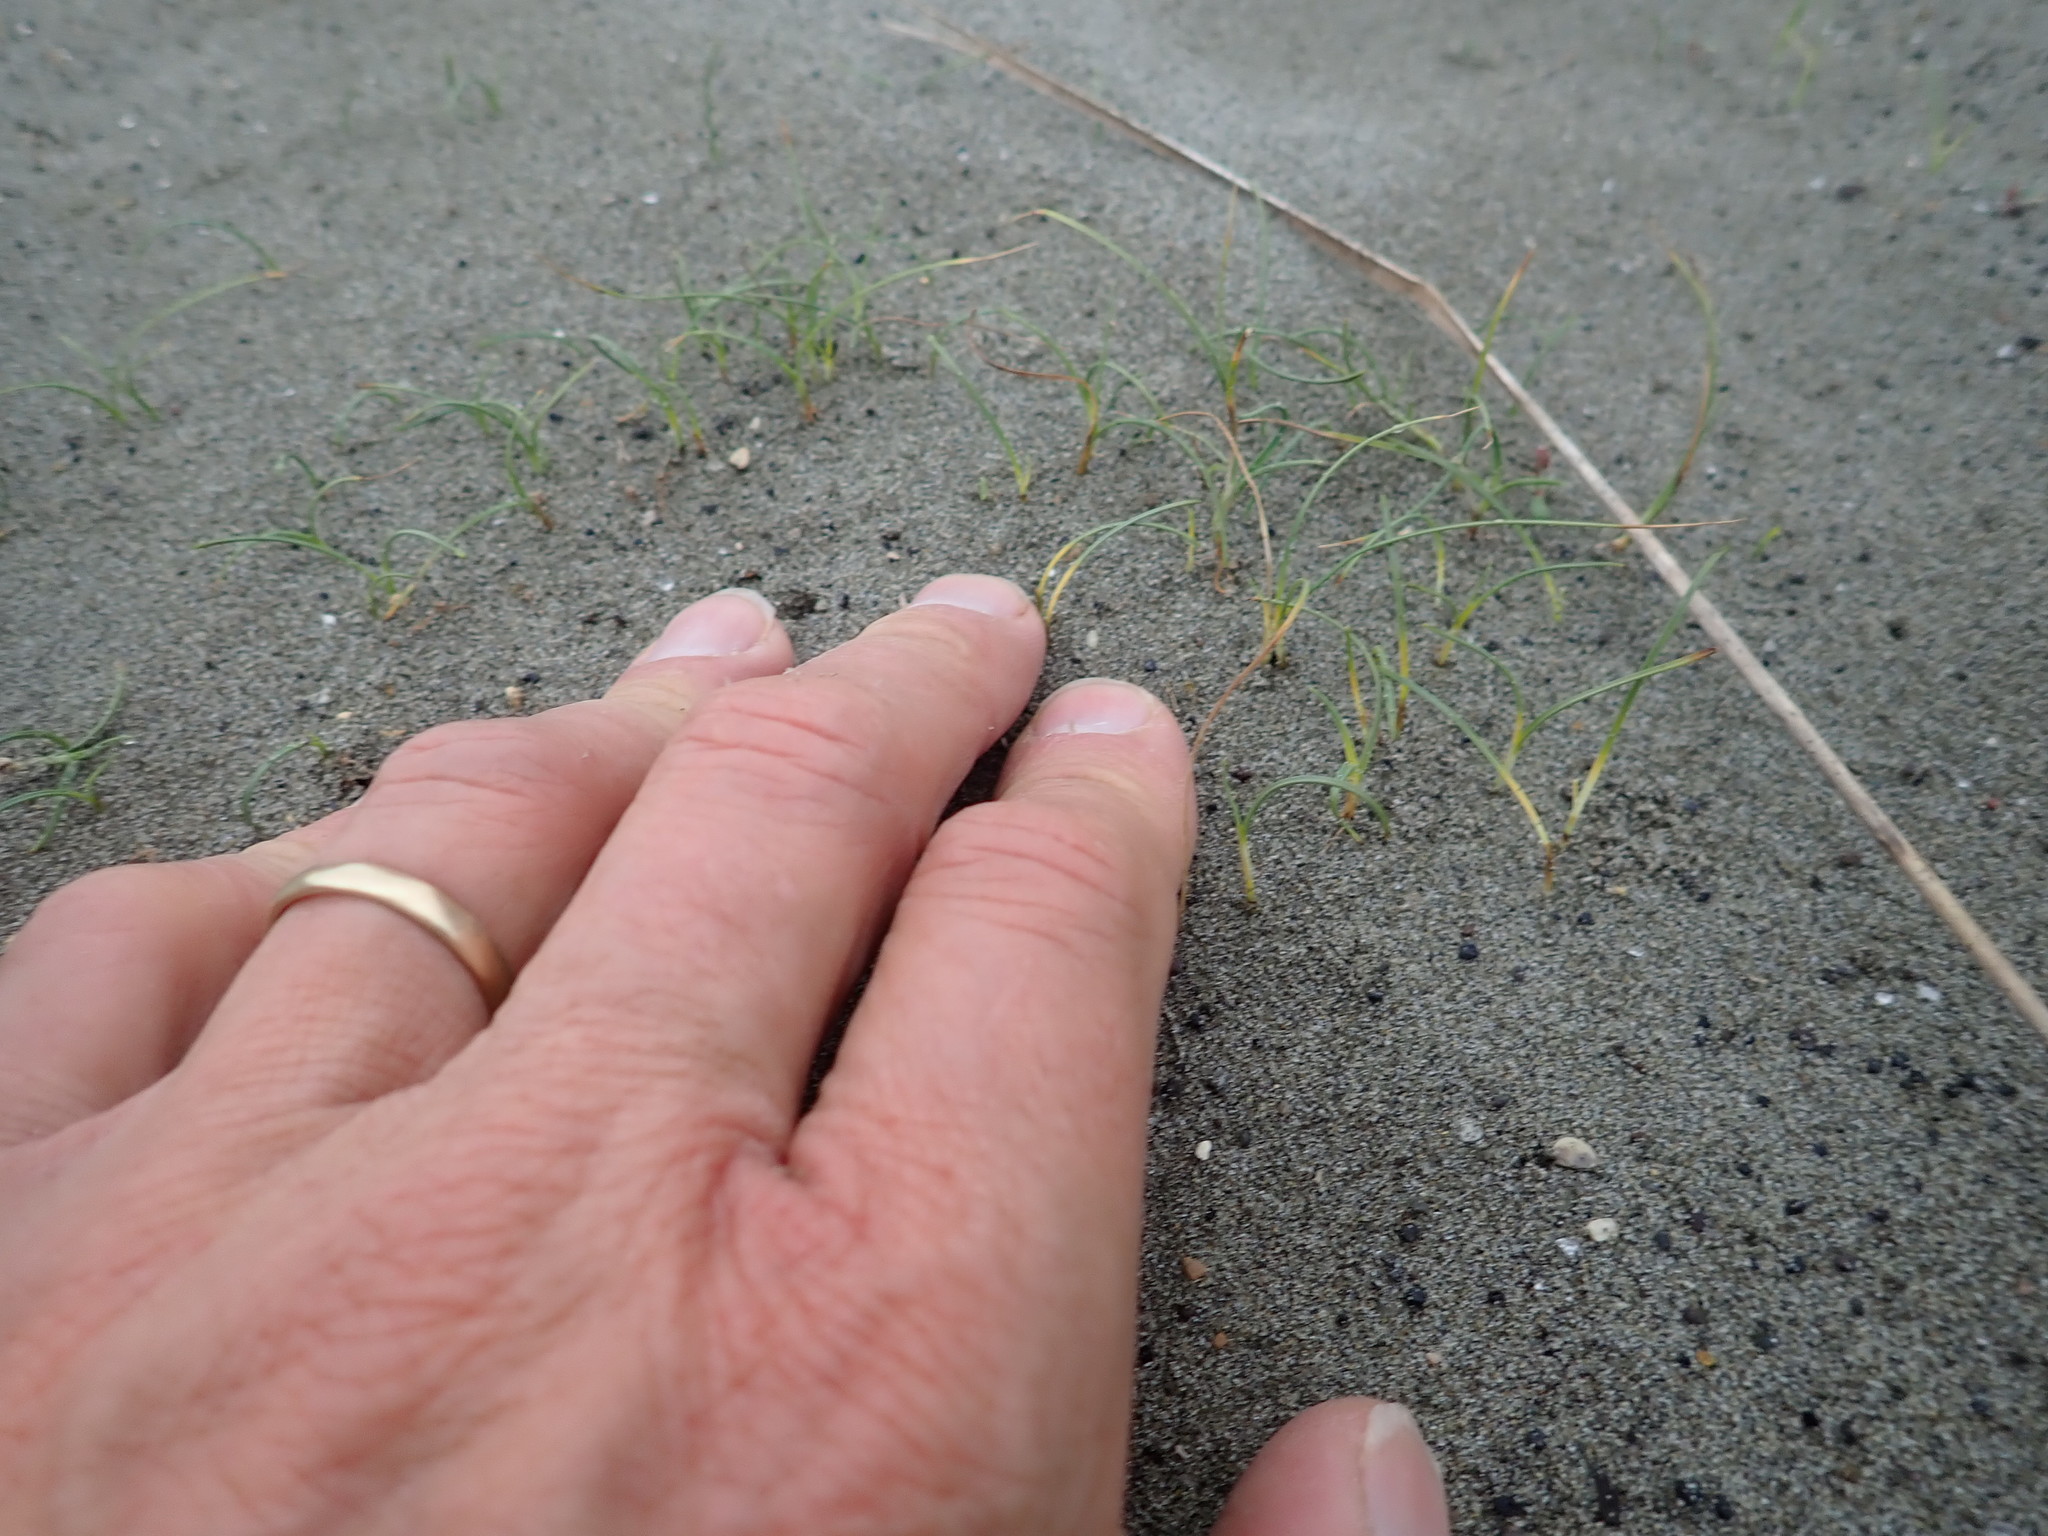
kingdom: Plantae
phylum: Tracheophyta
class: Liliopsida
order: Poales
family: Cyperaceae
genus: Carex
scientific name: Carex pumila
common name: Dwarf sedge
